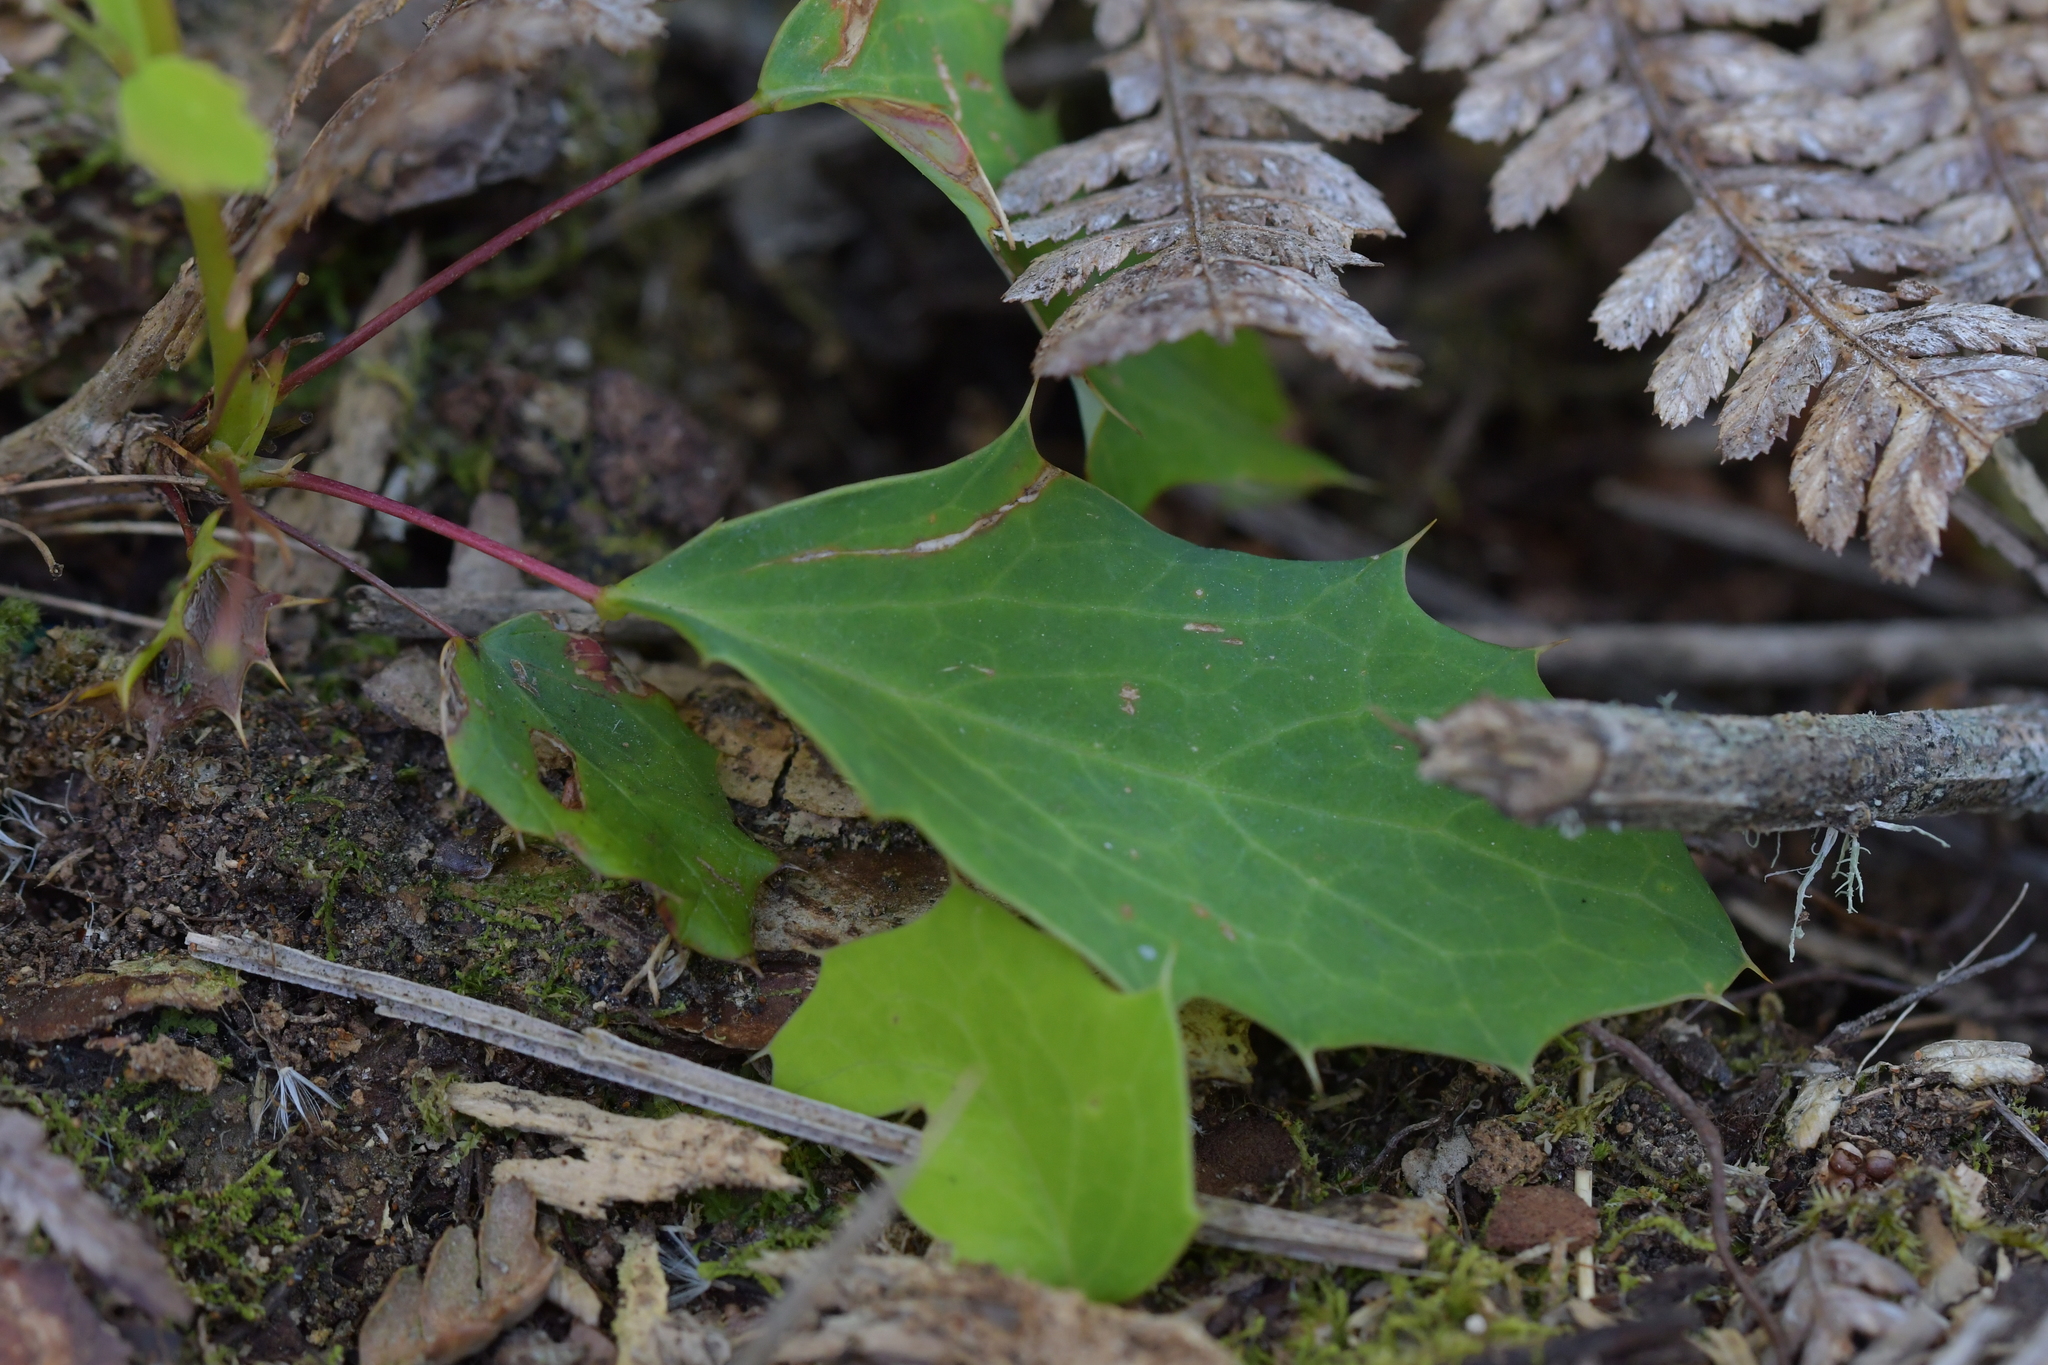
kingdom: Plantae
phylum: Tracheophyta
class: Magnoliopsida
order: Ranunculales
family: Berberidaceae
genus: Berberis
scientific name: Berberis glaucocarpa
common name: Great barberry
